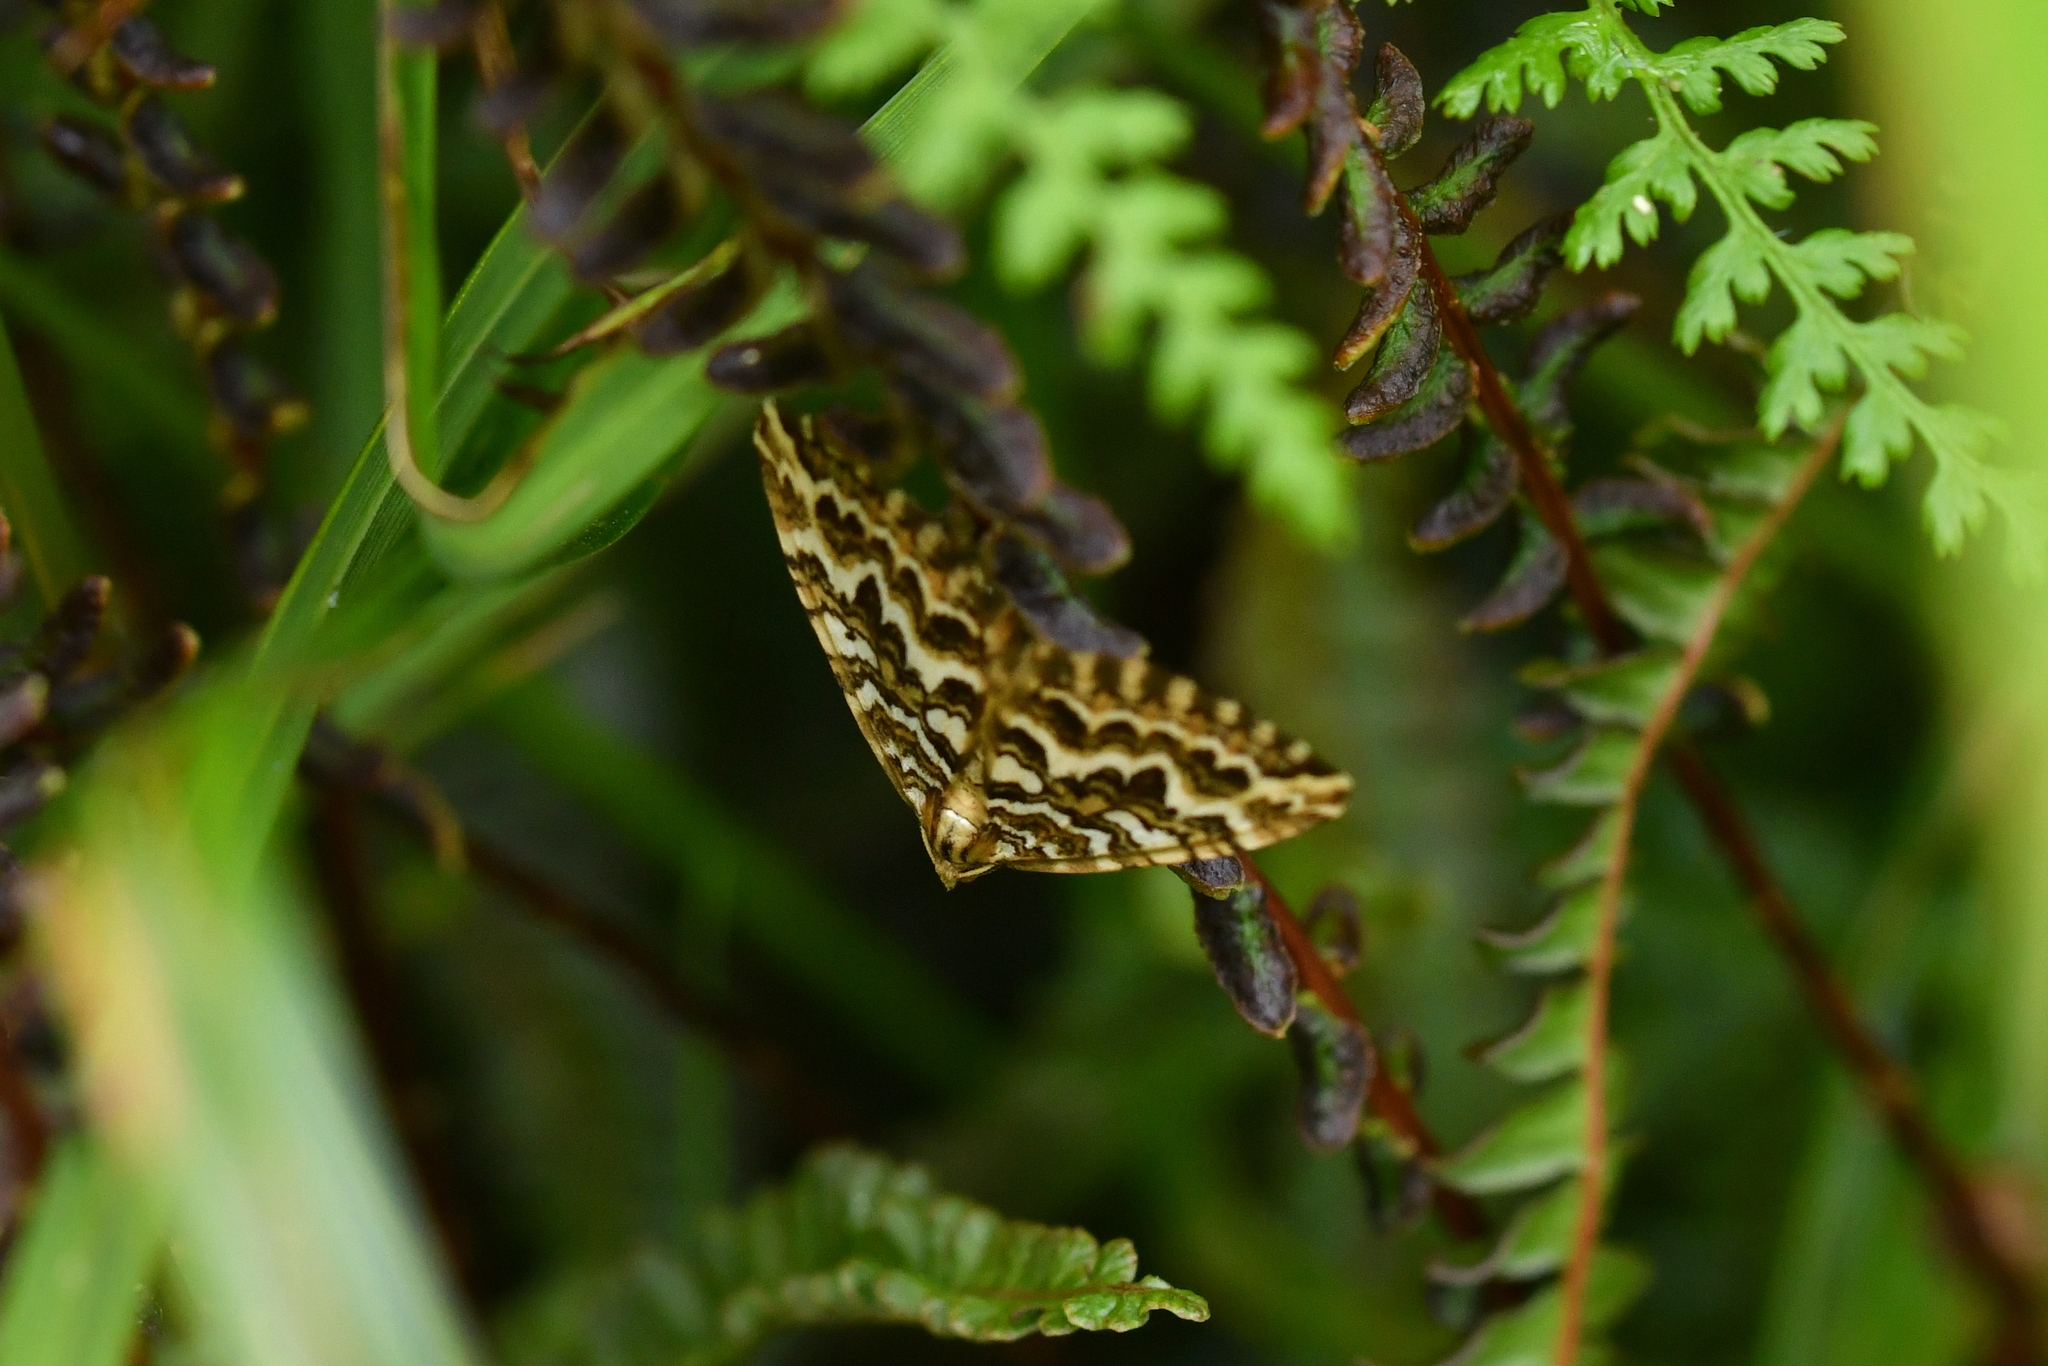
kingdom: Animalia
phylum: Arthropoda
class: Insecta
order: Lepidoptera
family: Geometridae
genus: Asaphodes
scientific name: Asaphodes clarata
